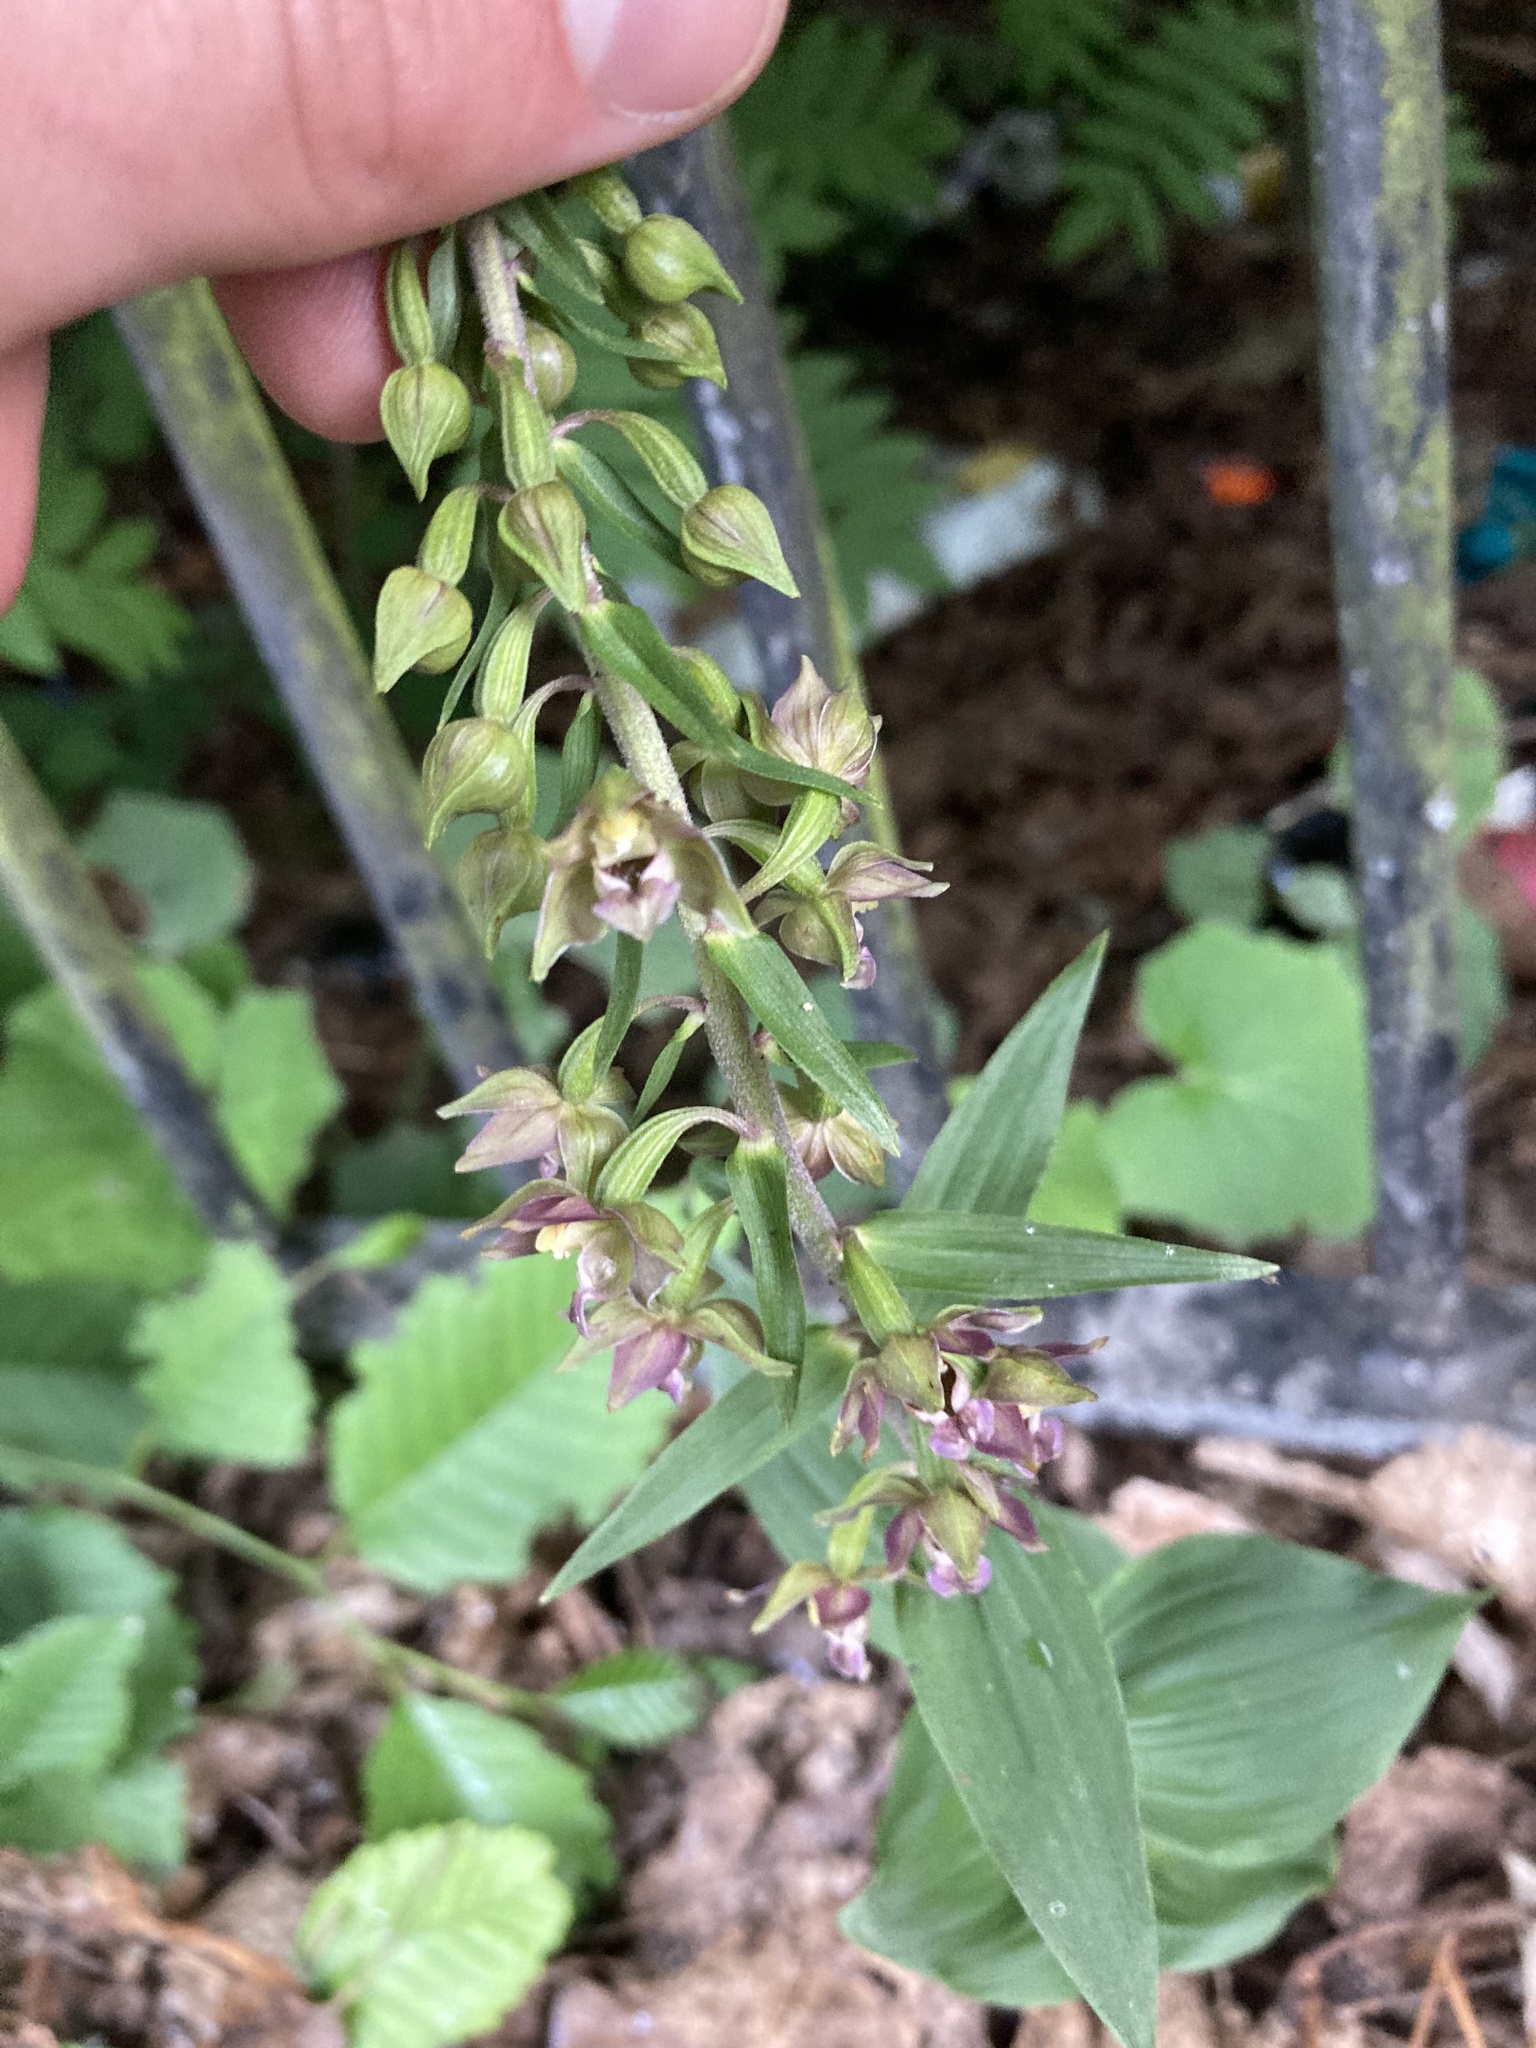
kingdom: Plantae
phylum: Tracheophyta
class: Liliopsida
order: Asparagales
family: Orchidaceae
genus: Epipactis
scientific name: Epipactis helleborine
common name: Broad-leaved helleborine
